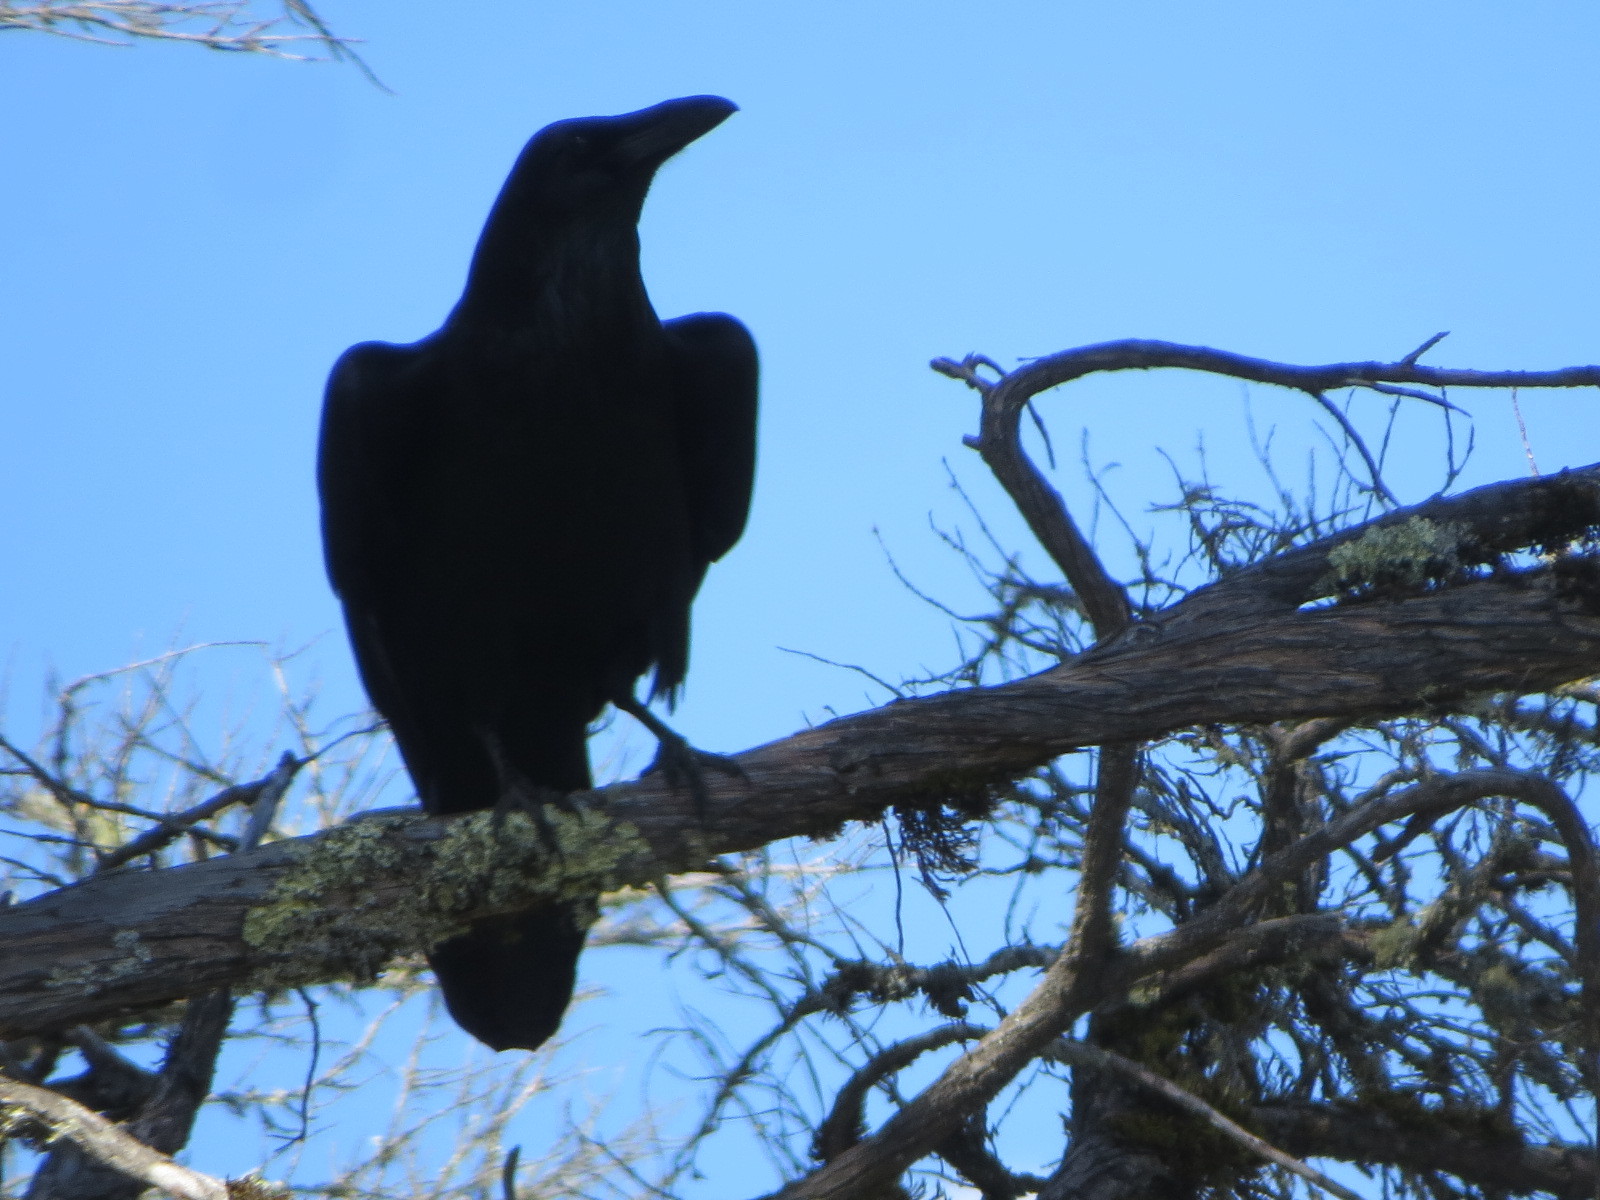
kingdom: Animalia
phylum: Chordata
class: Aves
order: Passeriformes
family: Corvidae
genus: Corvus
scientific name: Corvus corax
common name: Common raven
